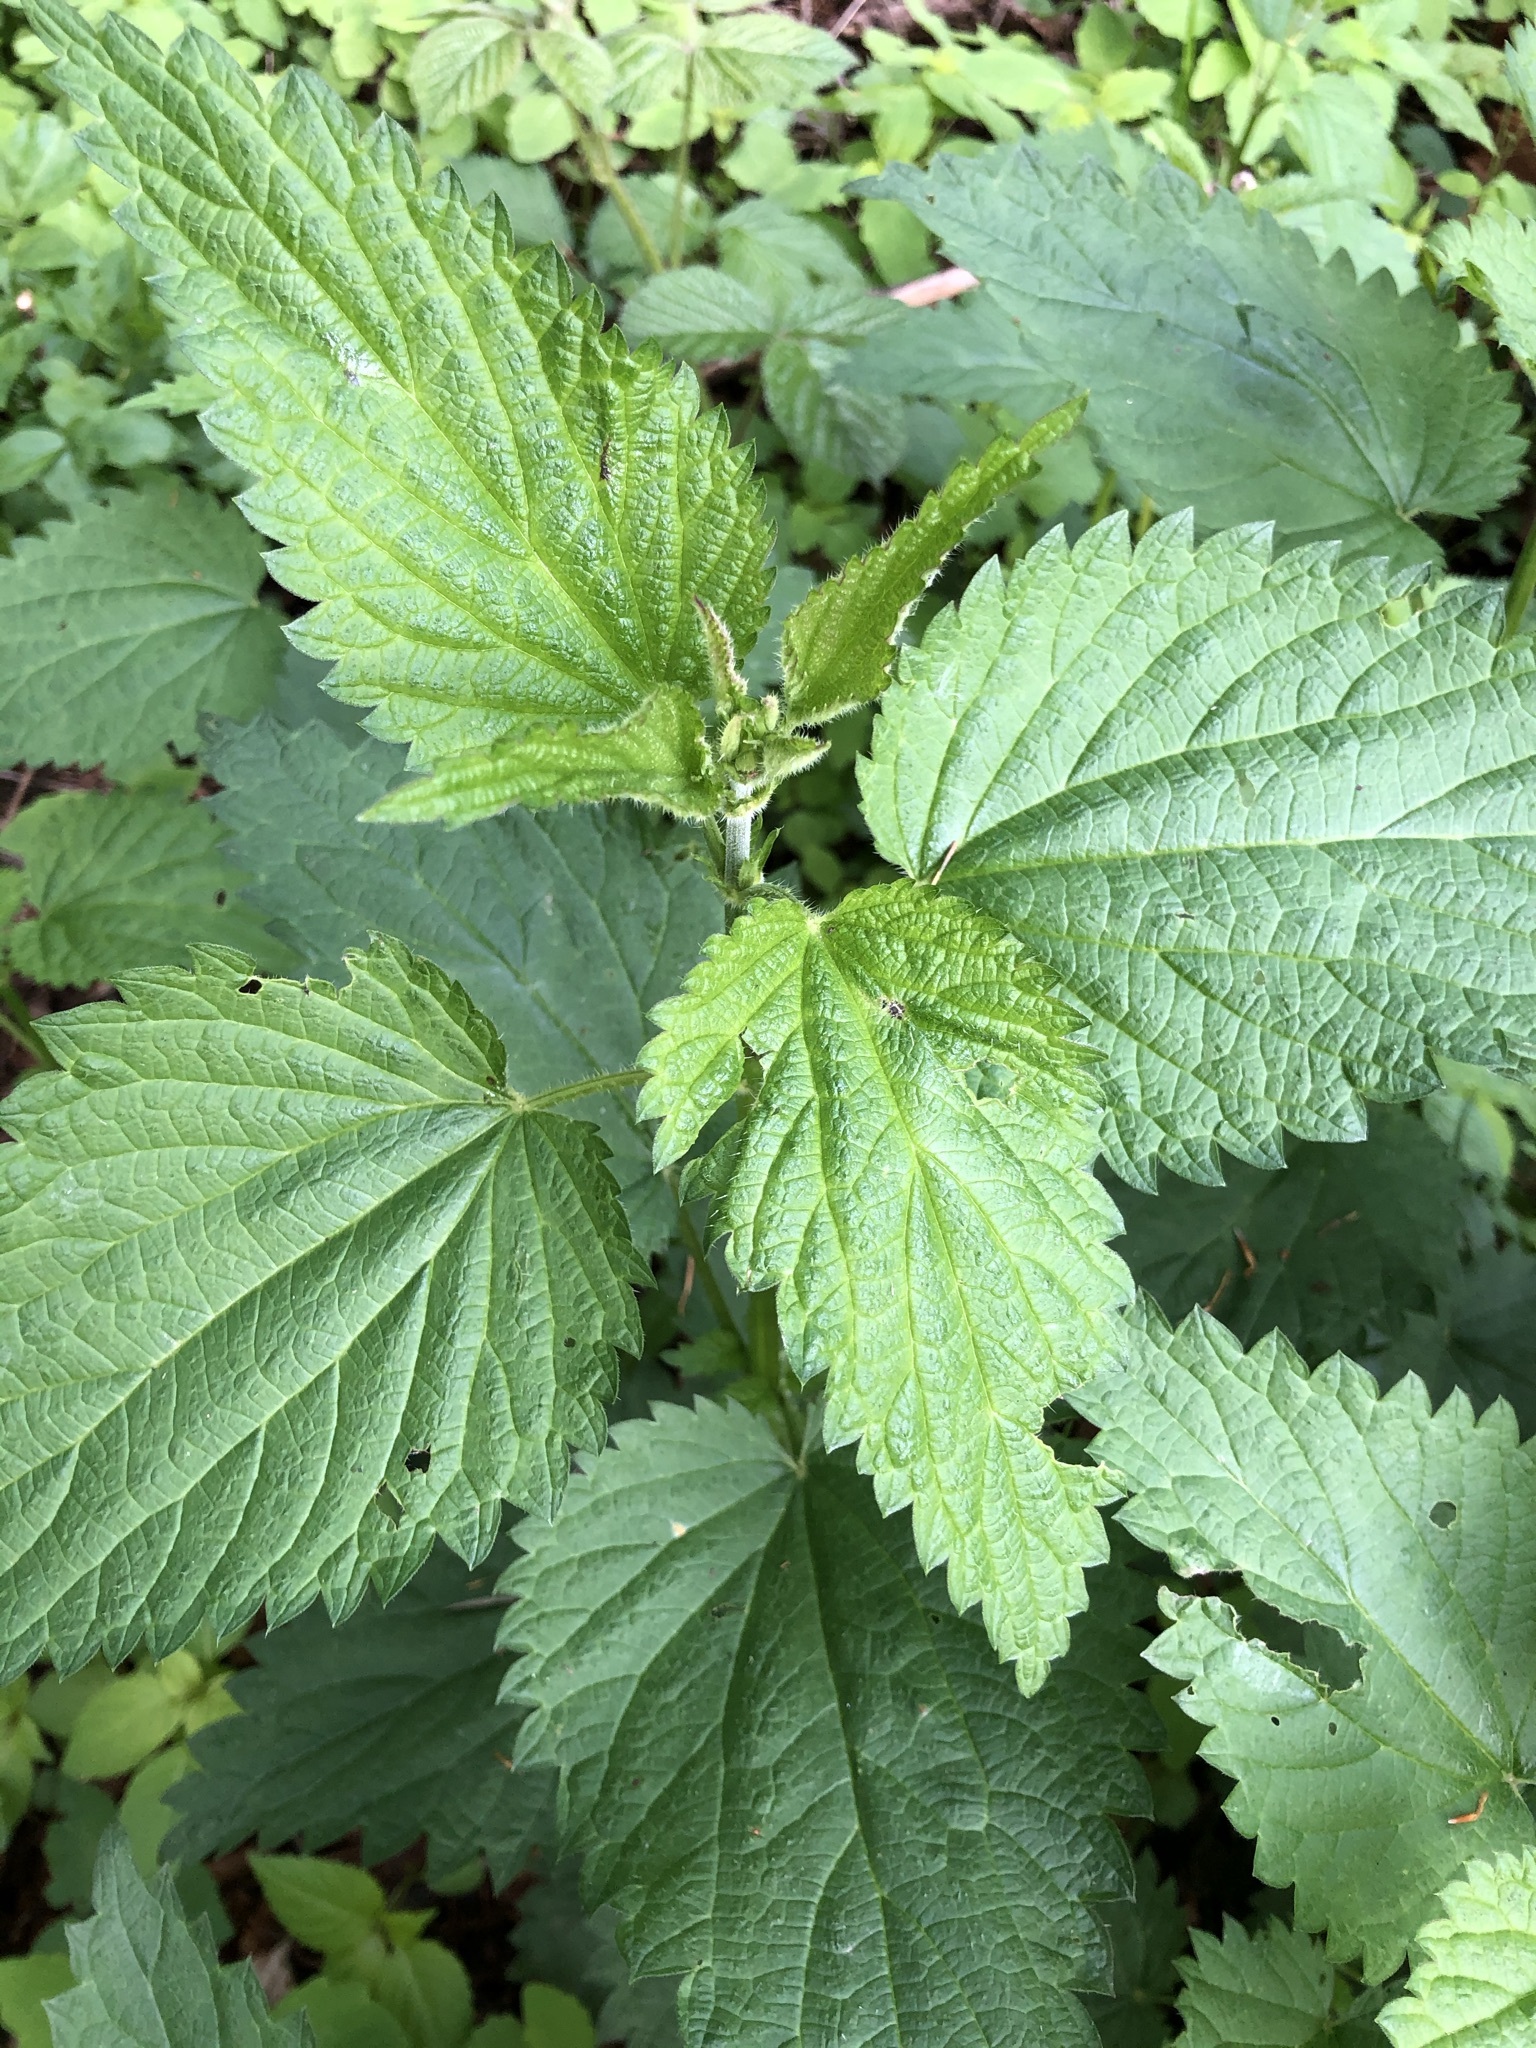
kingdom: Plantae
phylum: Tracheophyta
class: Magnoliopsida
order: Rosales
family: Urticaceae
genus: Urtica
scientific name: Urtica dioica
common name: Common nettle
